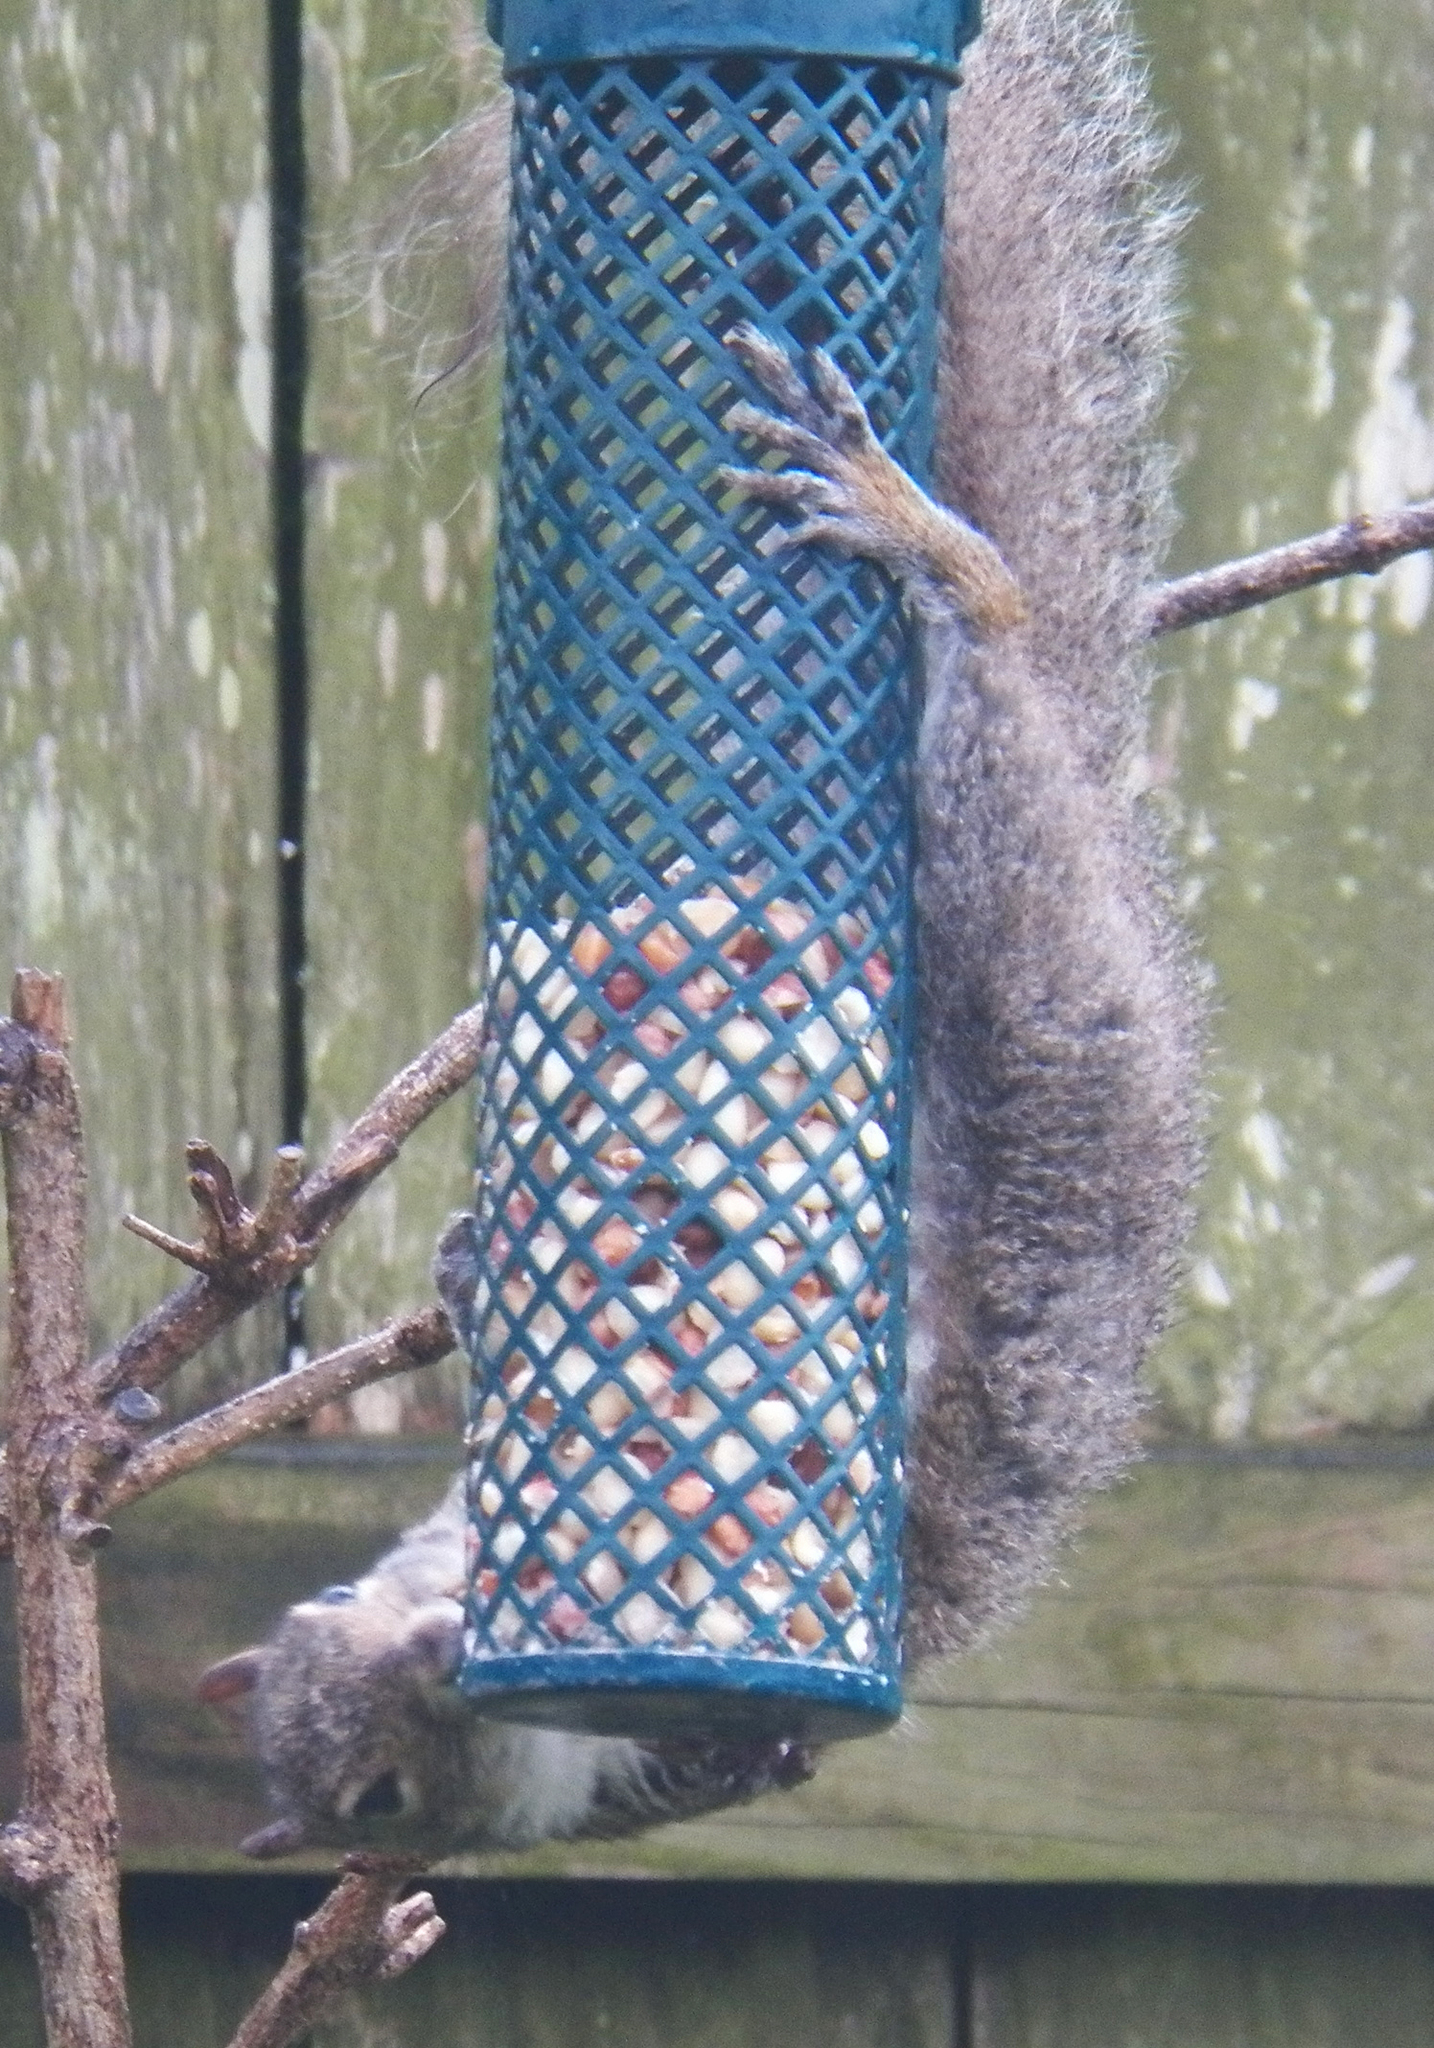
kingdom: Animalia
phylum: Chordata
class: Mammalia
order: Rodentia
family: Sciuridae
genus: Sciurus
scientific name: Sciurus carolinensis
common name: Eastern gray squirrel
